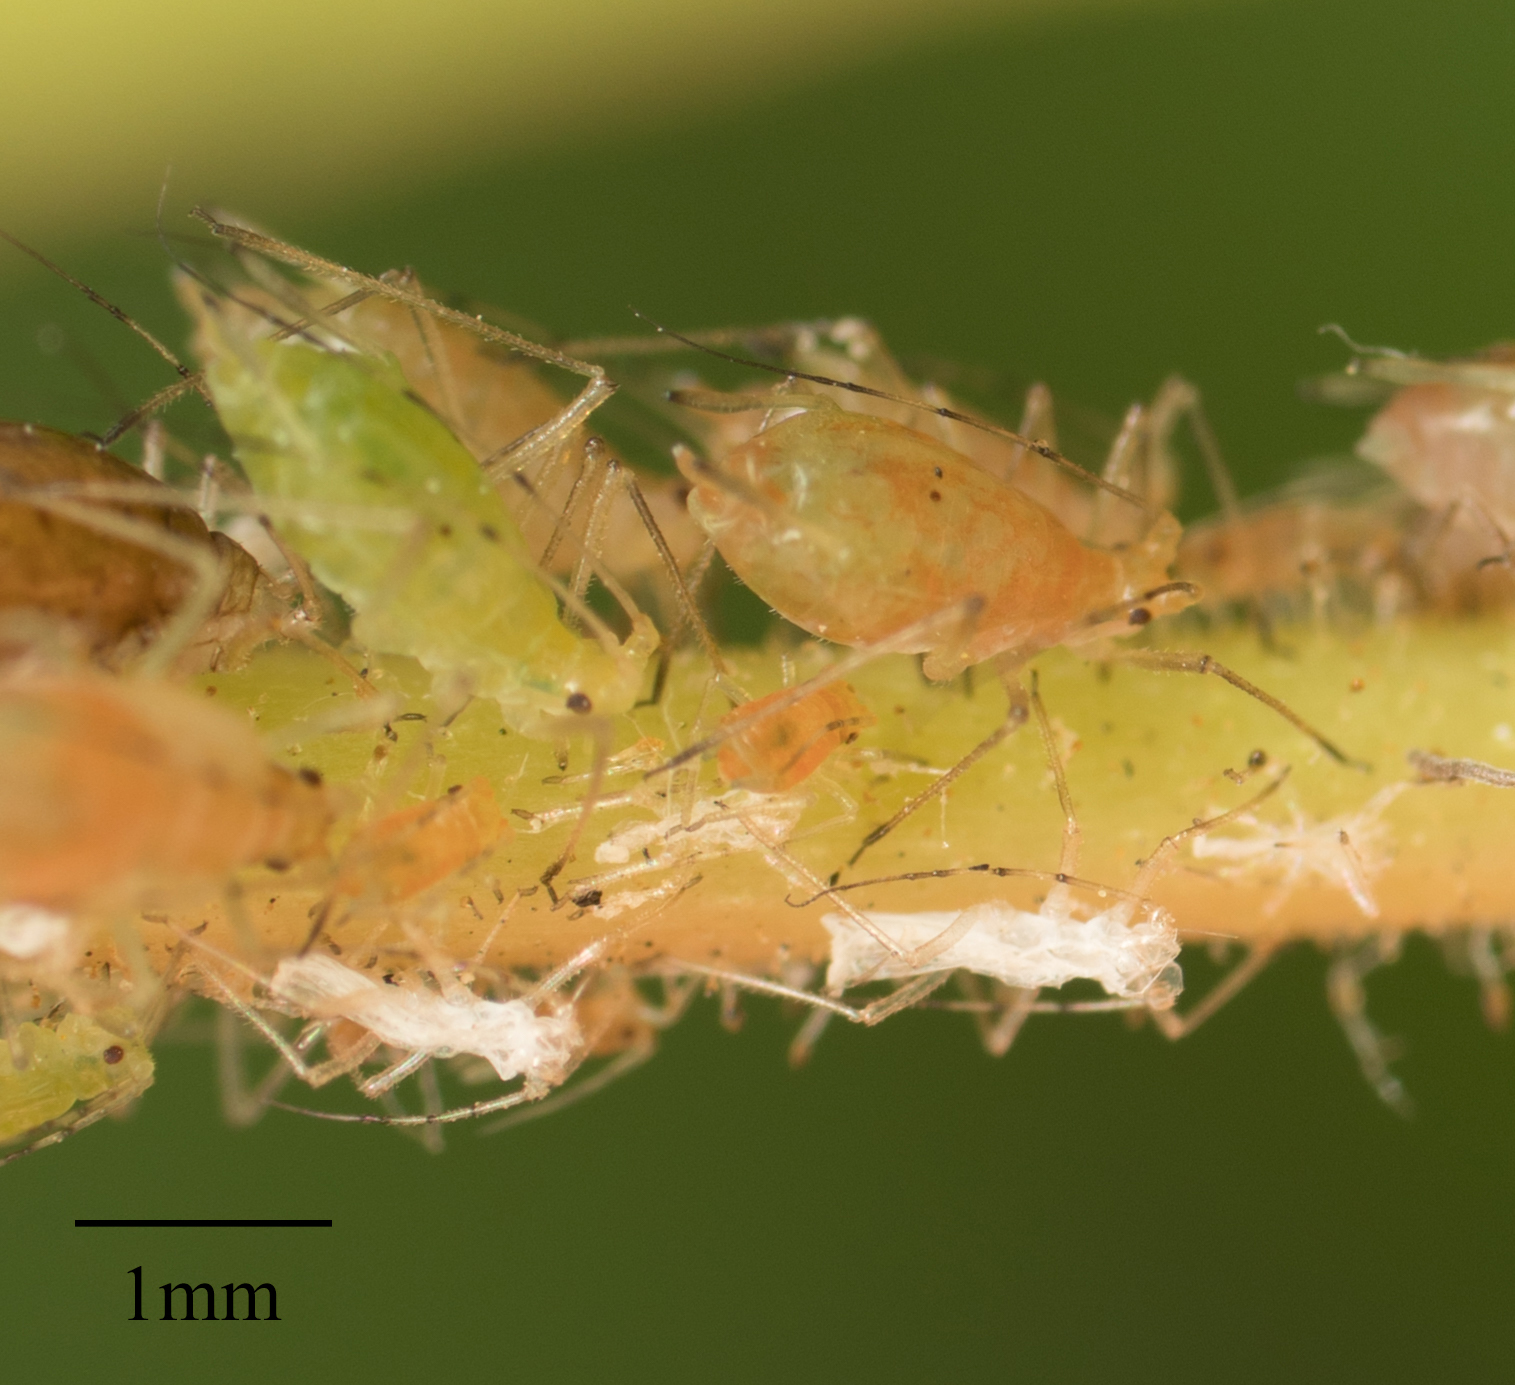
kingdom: Animalia
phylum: Arthropoda
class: Insecta
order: Hemiptera
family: Aphididae
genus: Wahlgreniella
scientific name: Wahlgreniella nervata
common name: Pale green aphid
